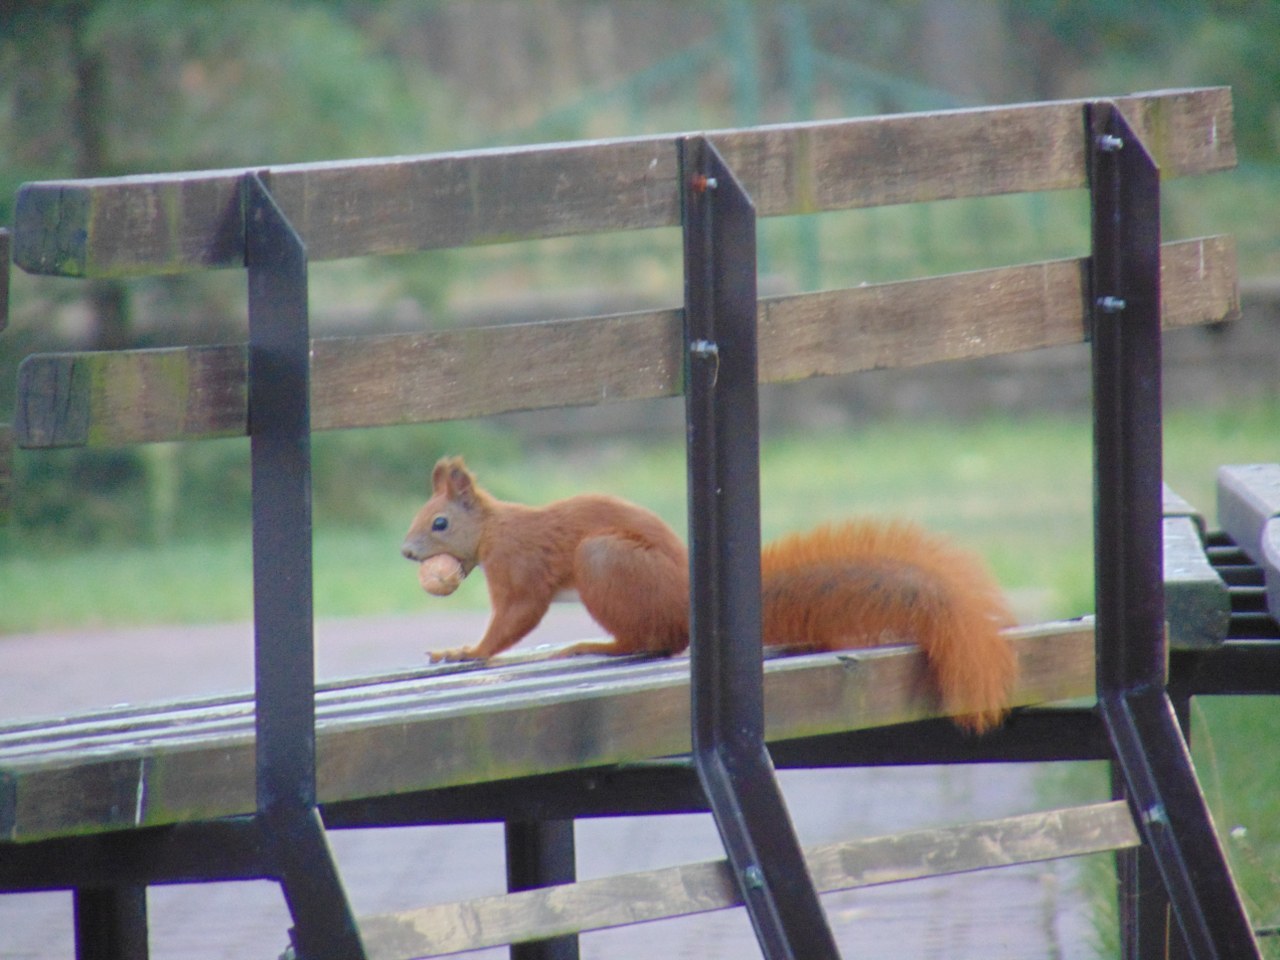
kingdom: Animalia
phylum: Chordata
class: Mammalia
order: Rodentia
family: Sciuridae
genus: Sciurus
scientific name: Sciurus vulgaris
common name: Eurasian red squirrel
